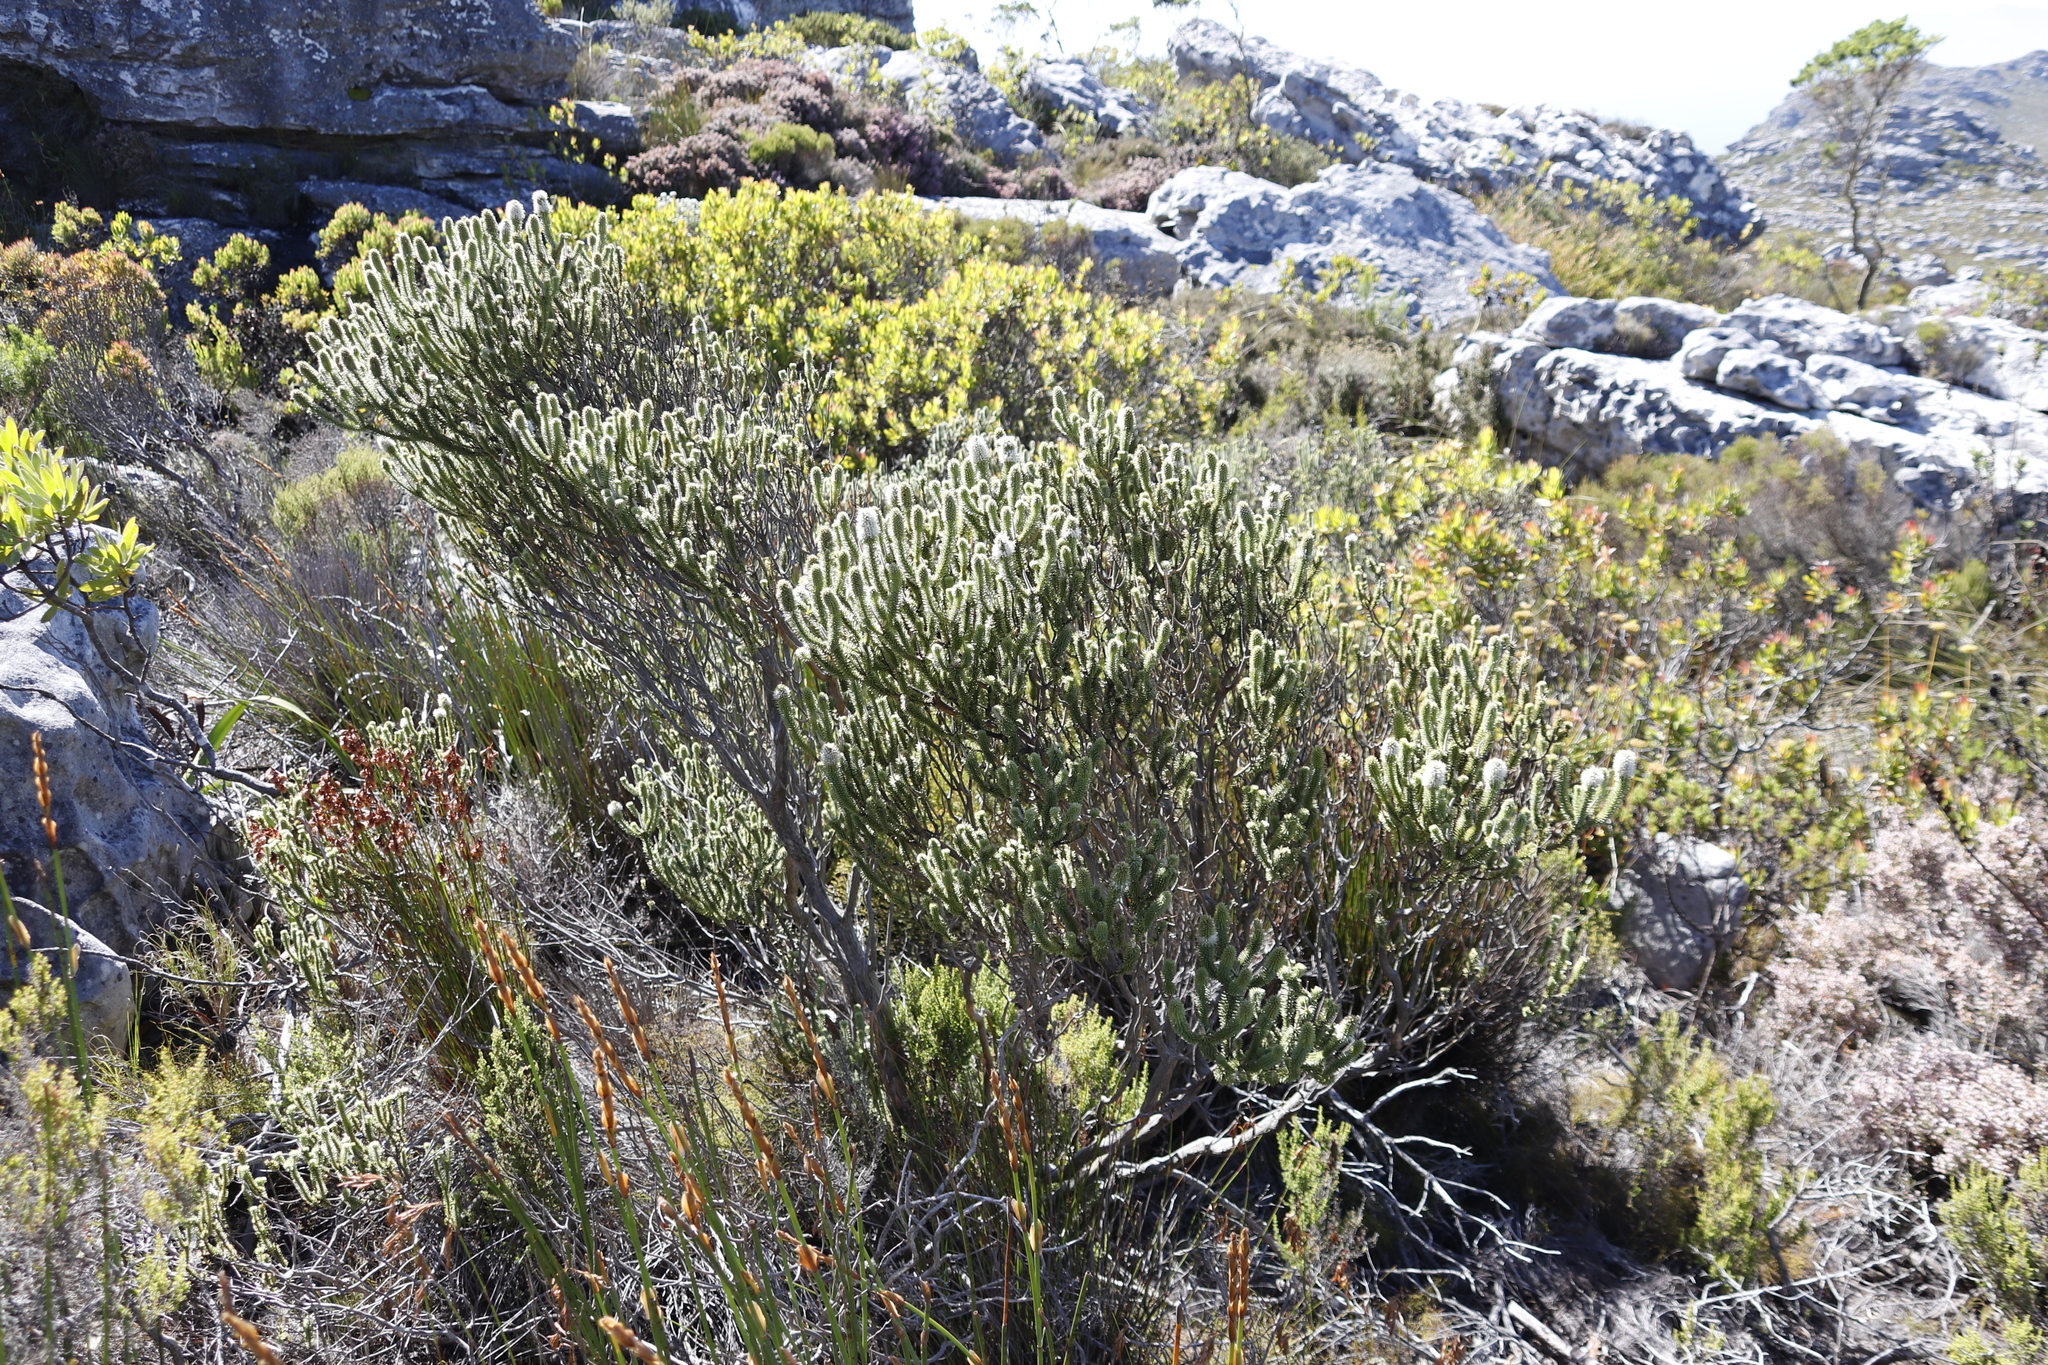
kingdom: Plantae
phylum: Tracheophyta
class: Magnoliopsida
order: Lamiales
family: Stilbaceae
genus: Stilbe
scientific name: Stilbe vestita
